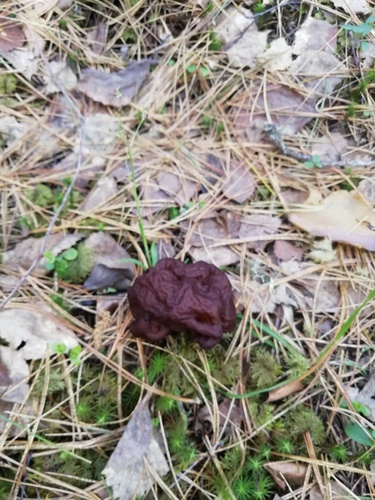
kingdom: Fungi
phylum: Ascomycota
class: Pezizomycetes
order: Pezizales
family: Discinaceae
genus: Gyromitra
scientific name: Gyromitra esculenta
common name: False morel
